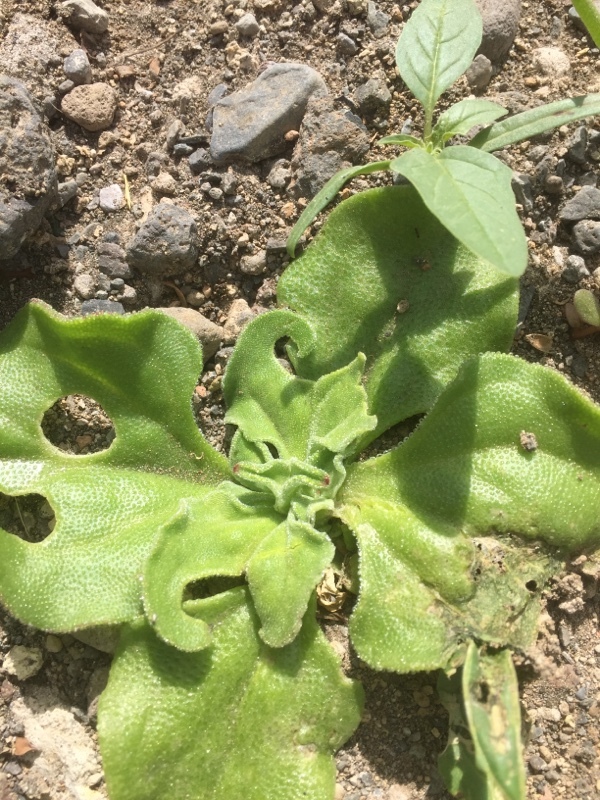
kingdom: Plantae
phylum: Tracheophyta
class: Magnoliopsida
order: Caryophyllales
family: Aizoaceae
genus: Mesembryanthemum
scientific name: Mesembryanthemum crystallinum
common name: Common iceplant
